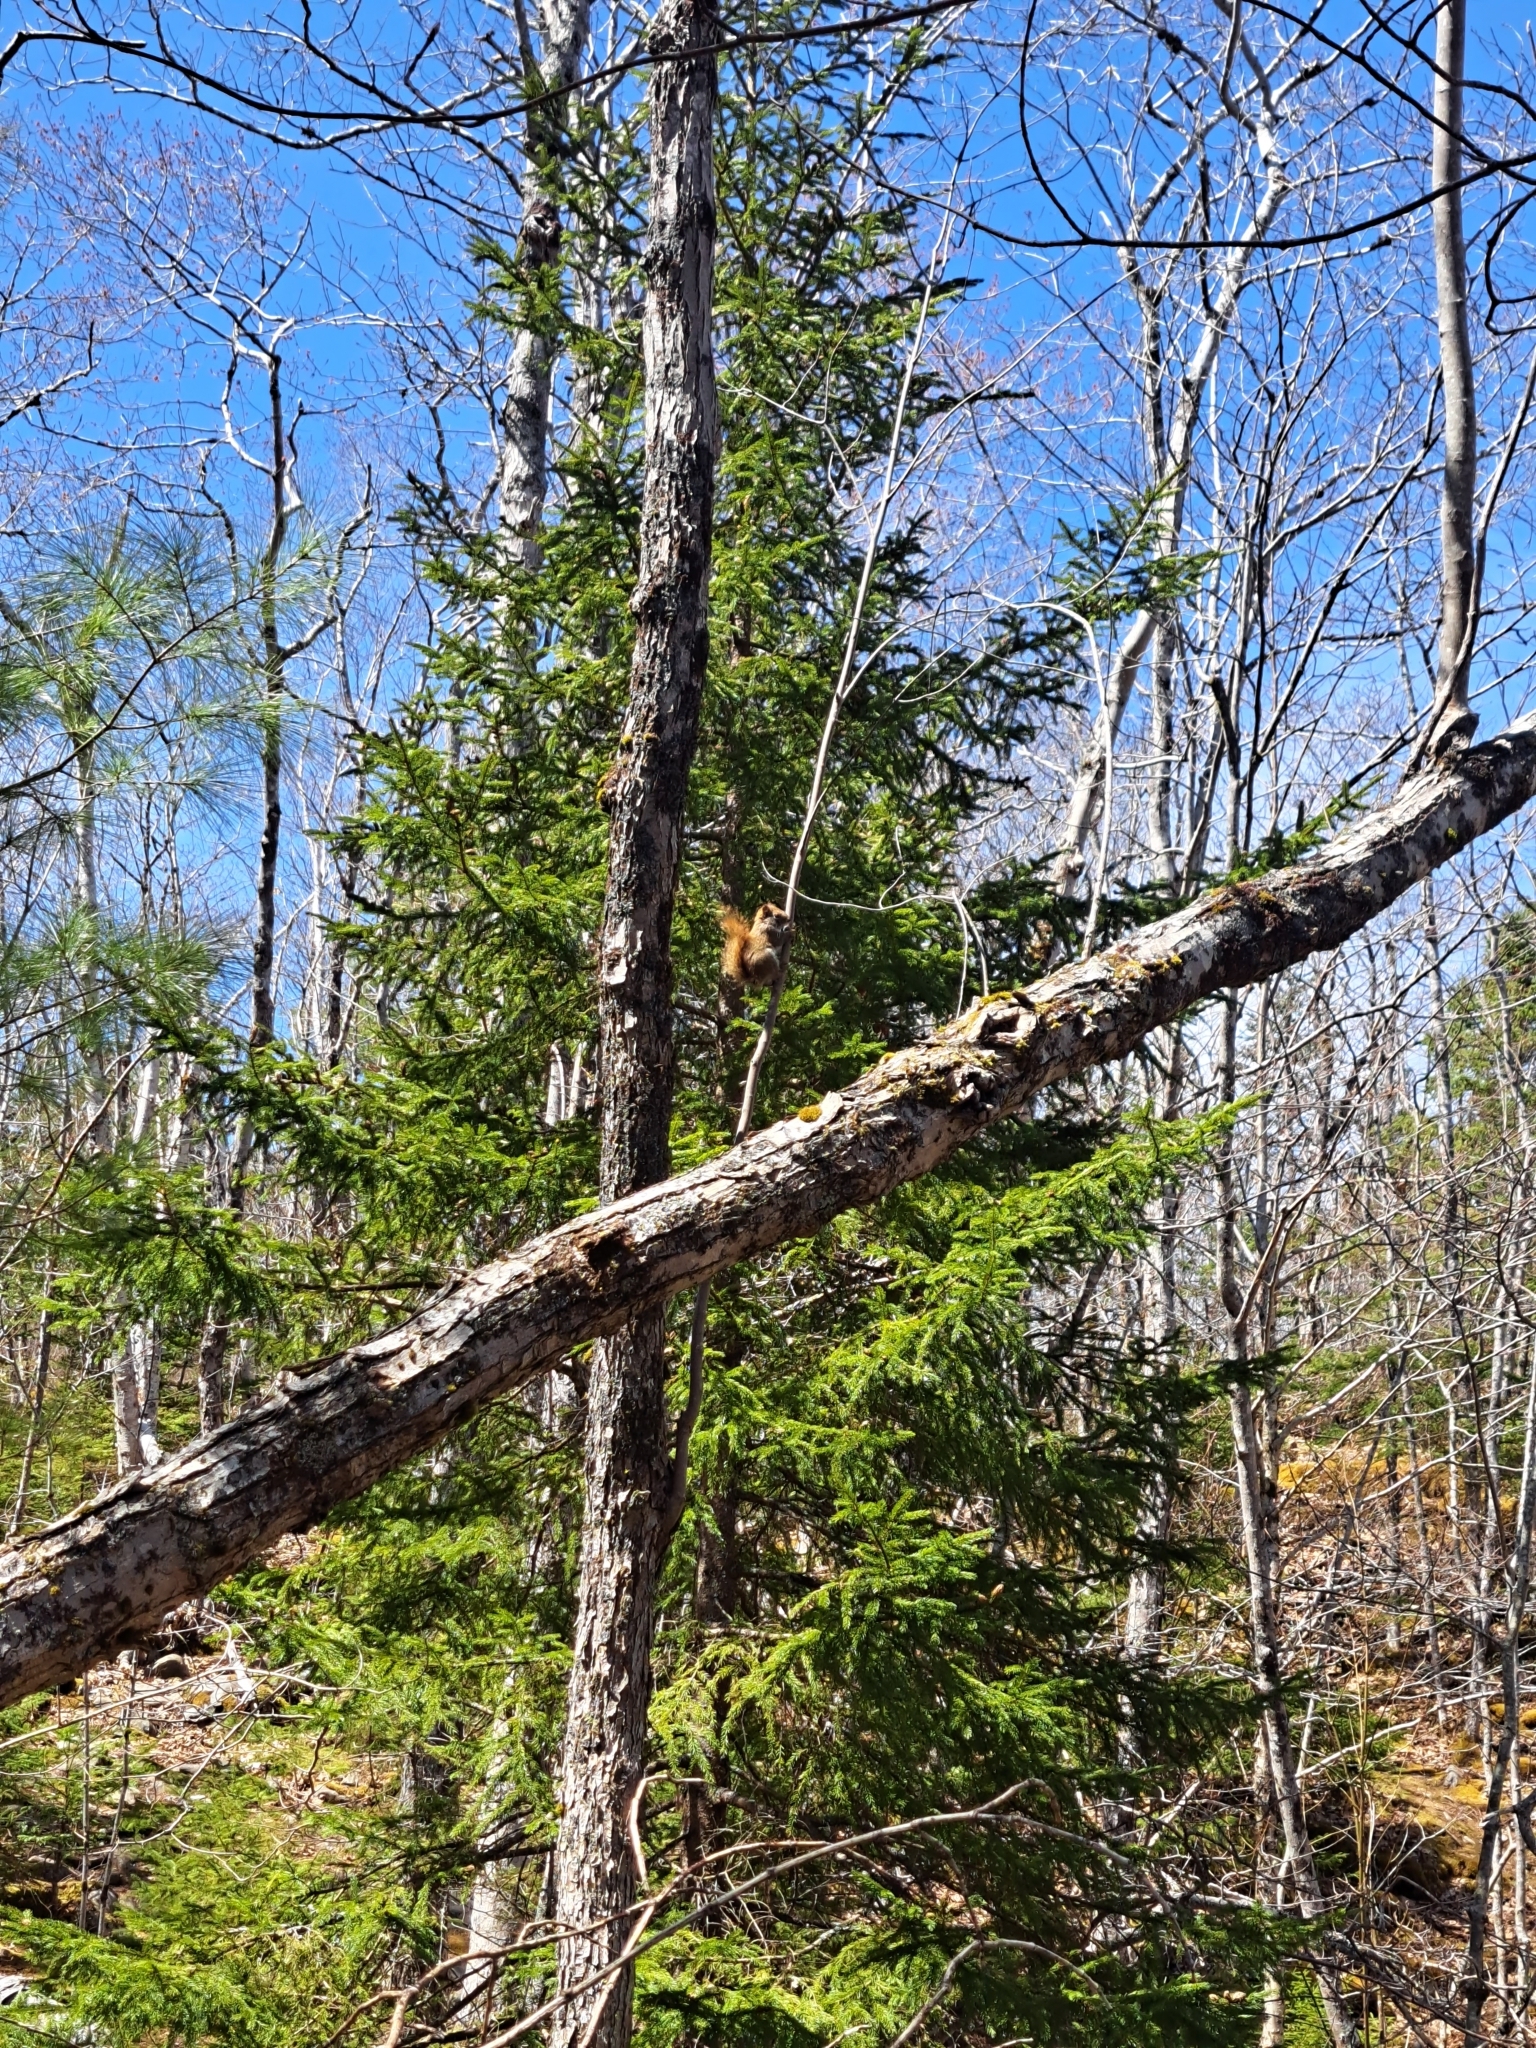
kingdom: Animalia
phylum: Chordata
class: Mammalia
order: Rodentia
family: Sciuridae
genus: Tamiasciurus
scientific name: Tamiasciurus hudsonicus
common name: Red squirrel
